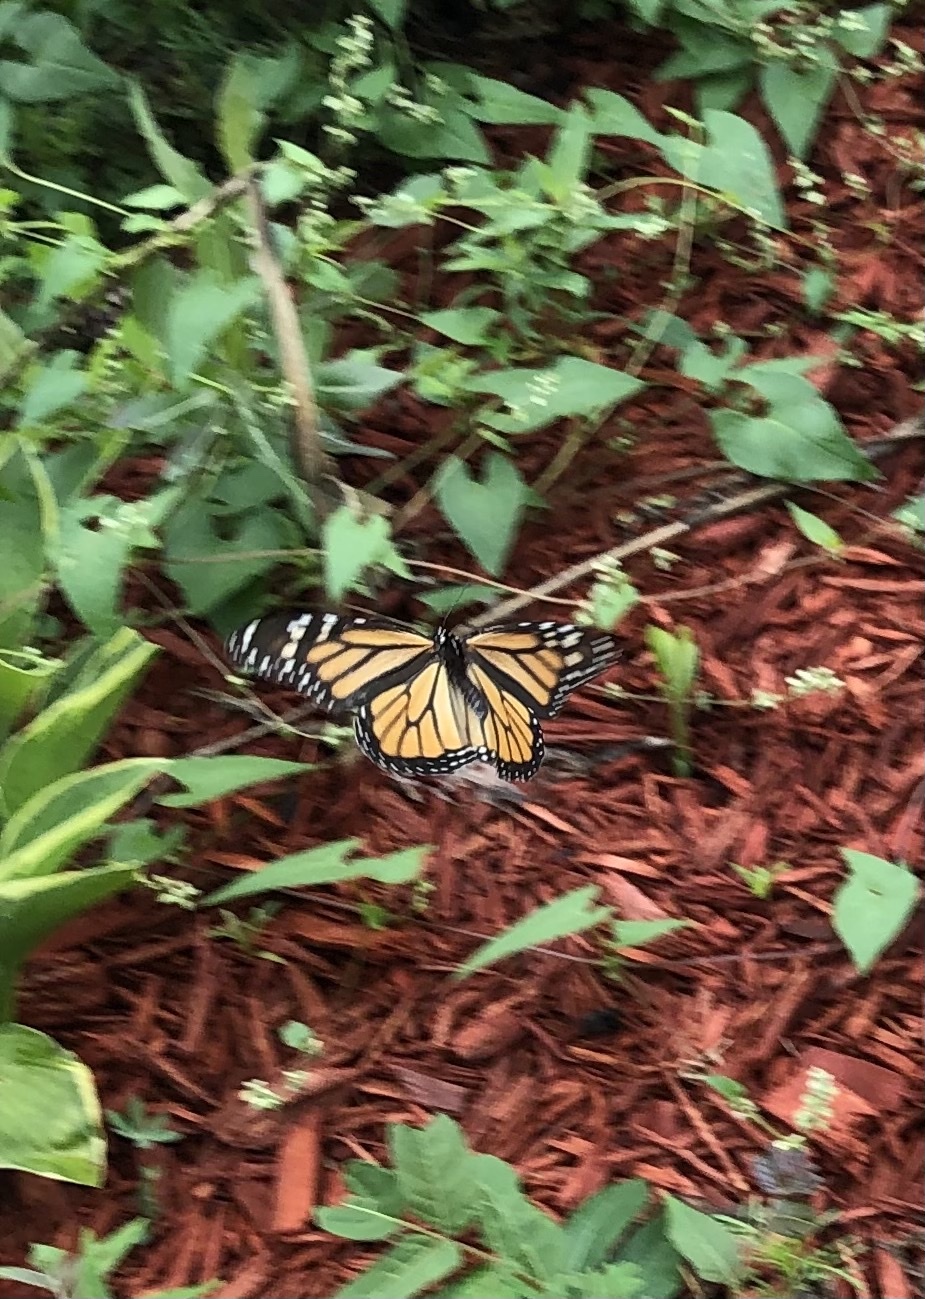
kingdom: Animalia
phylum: Arthropoda
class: Insecta
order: Lepidoptera
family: Nymphalidae
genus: Danaus
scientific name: Danaus plexippus
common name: Monarch
